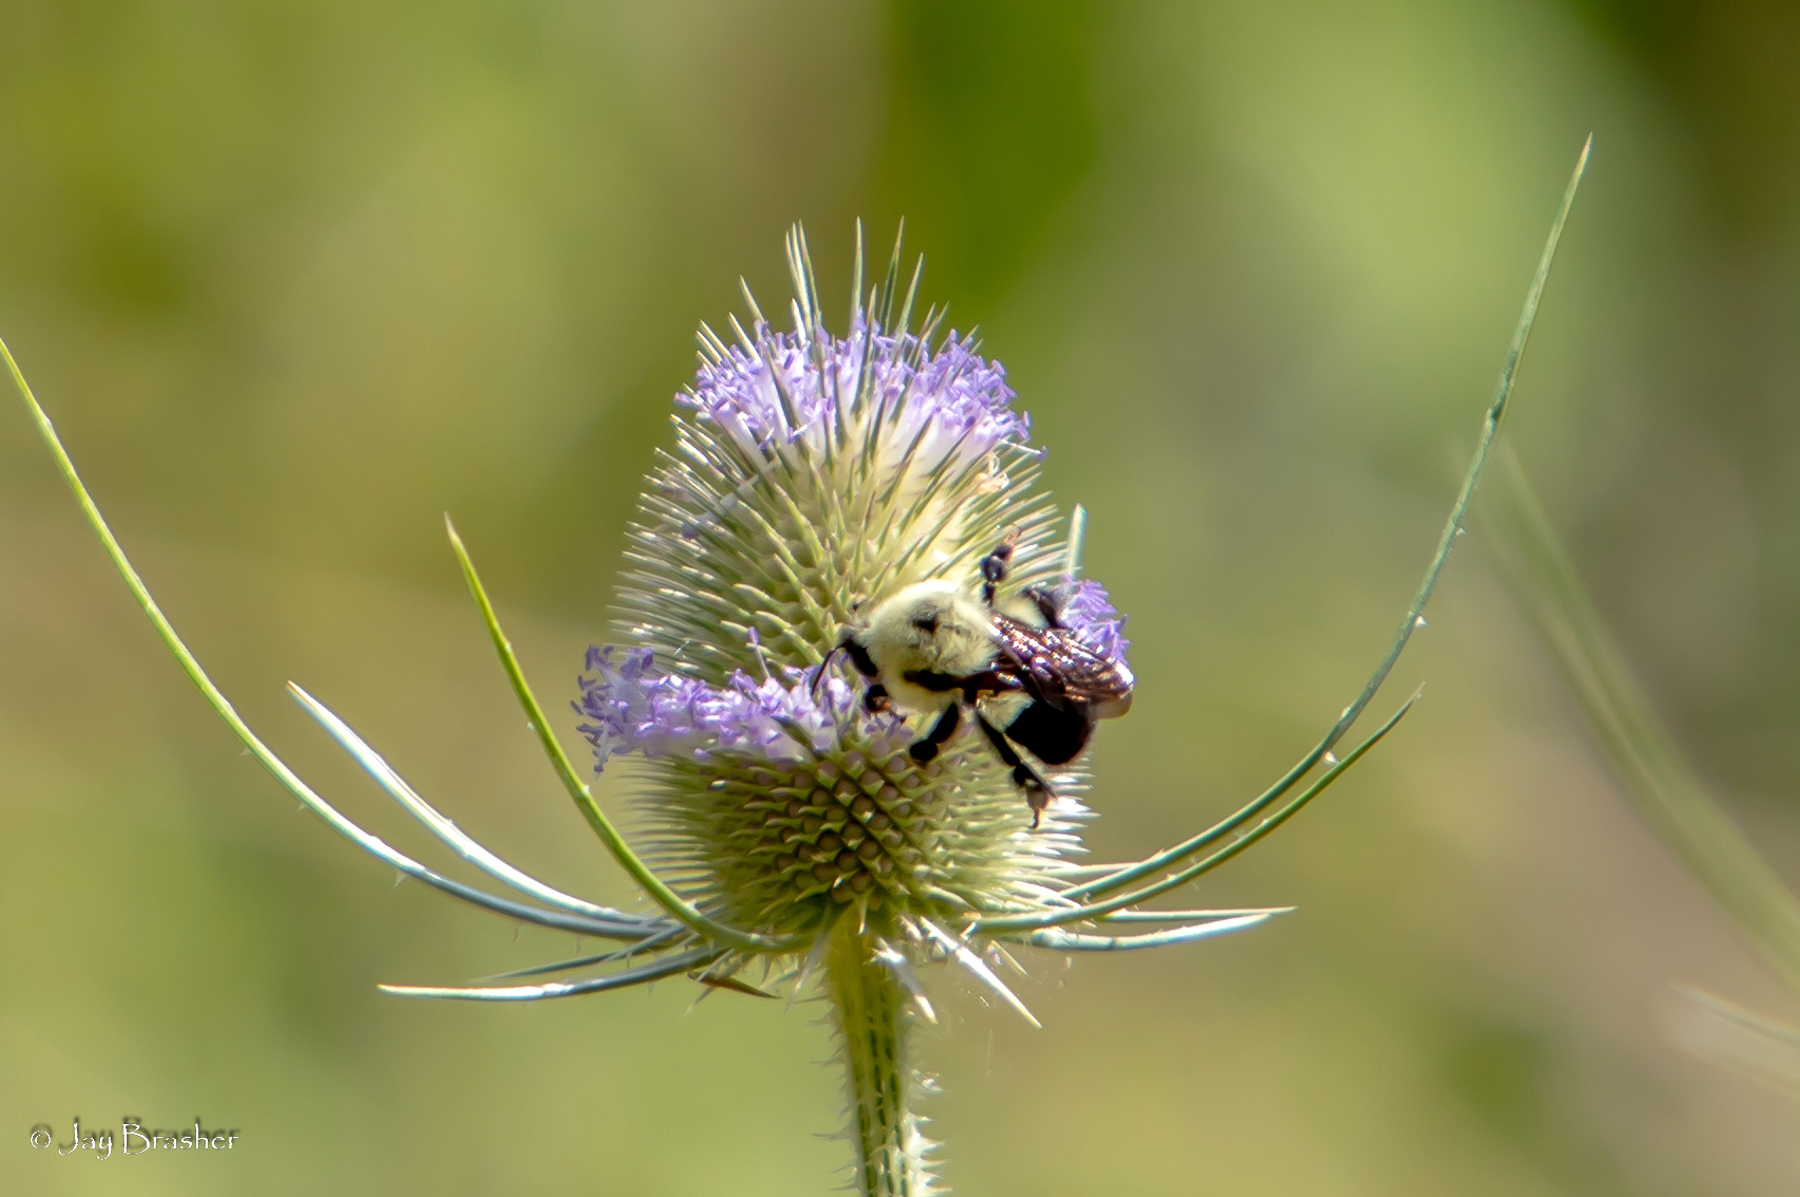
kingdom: Animalia
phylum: Arthropoda
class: Insecta
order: Hymenoptera
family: Apidae
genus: Bombus
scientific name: Bombus bimaculatus
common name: Two-spotted bumble bee
